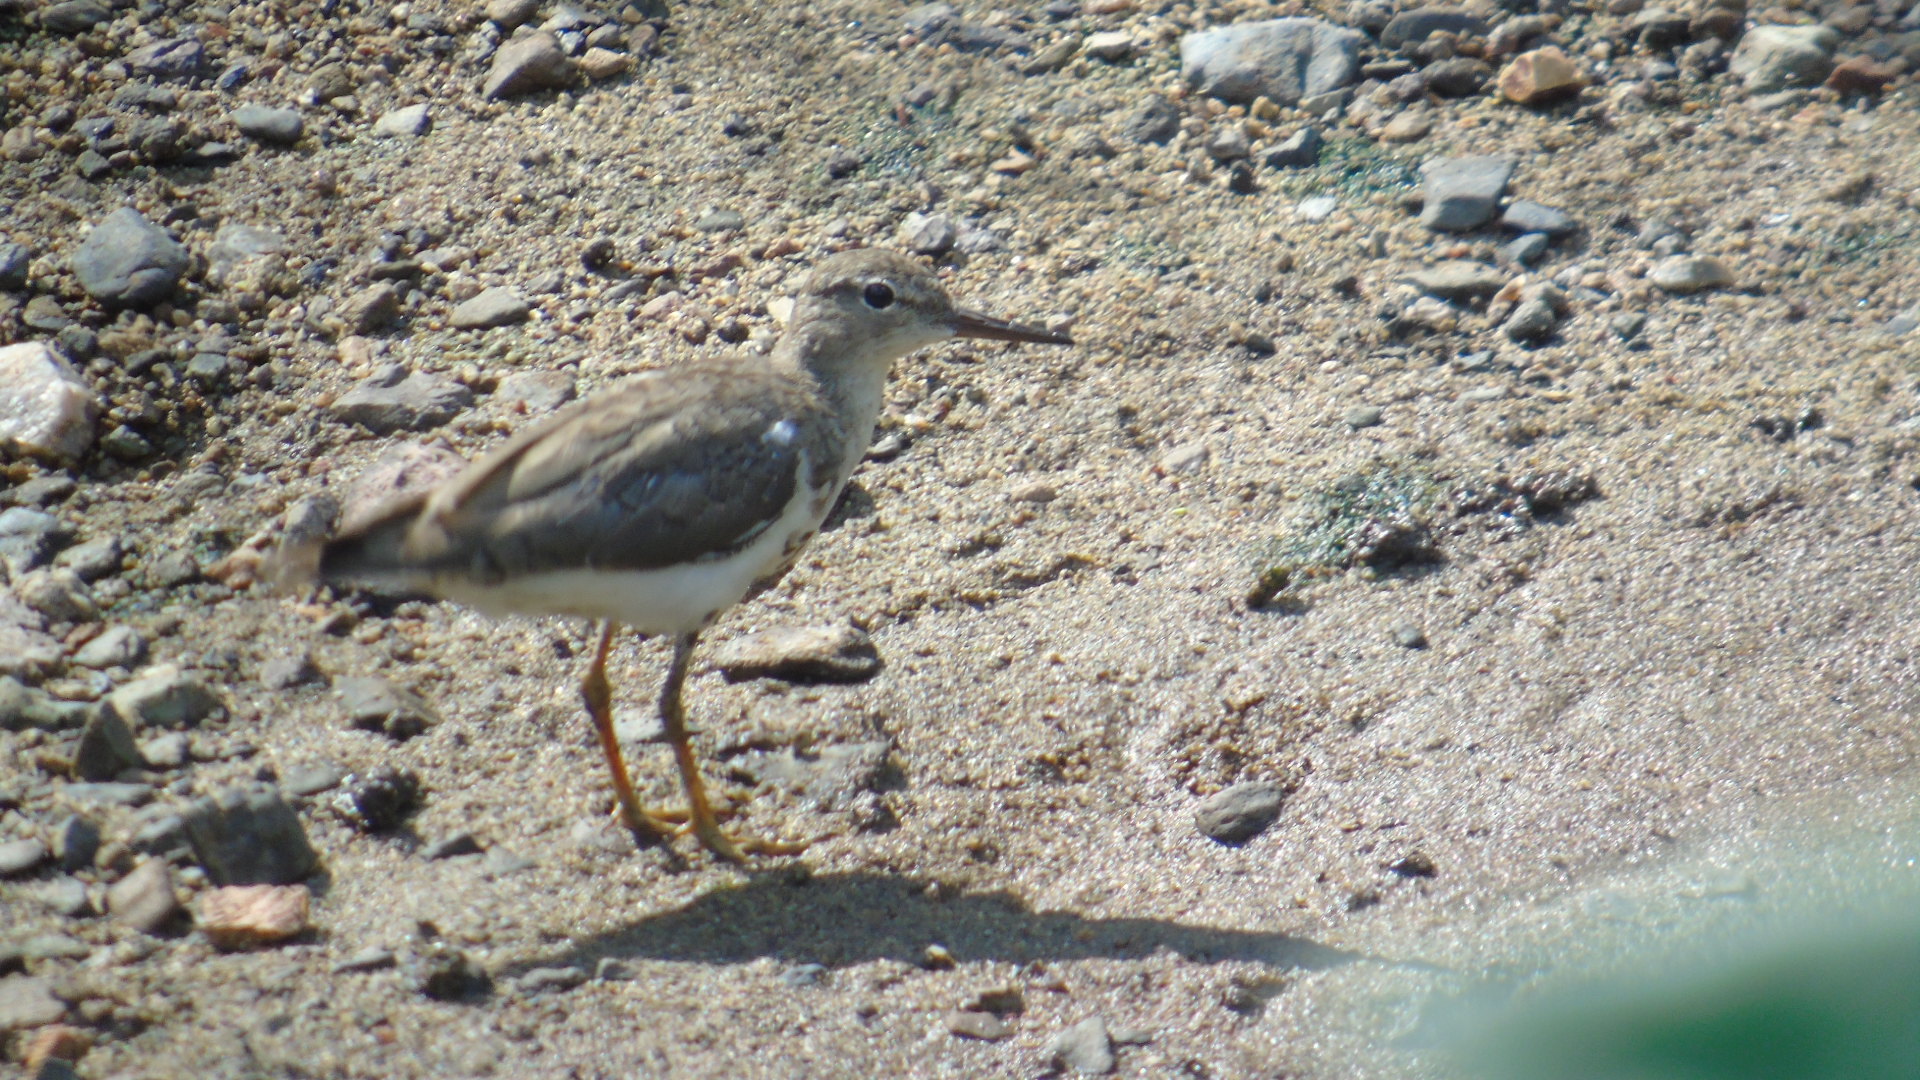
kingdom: Animalia
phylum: Chordata
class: Aves
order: Charadriiformes
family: Scolopacidae
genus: Actitis
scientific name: Actitis macularius
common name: Spotted sandpiper
